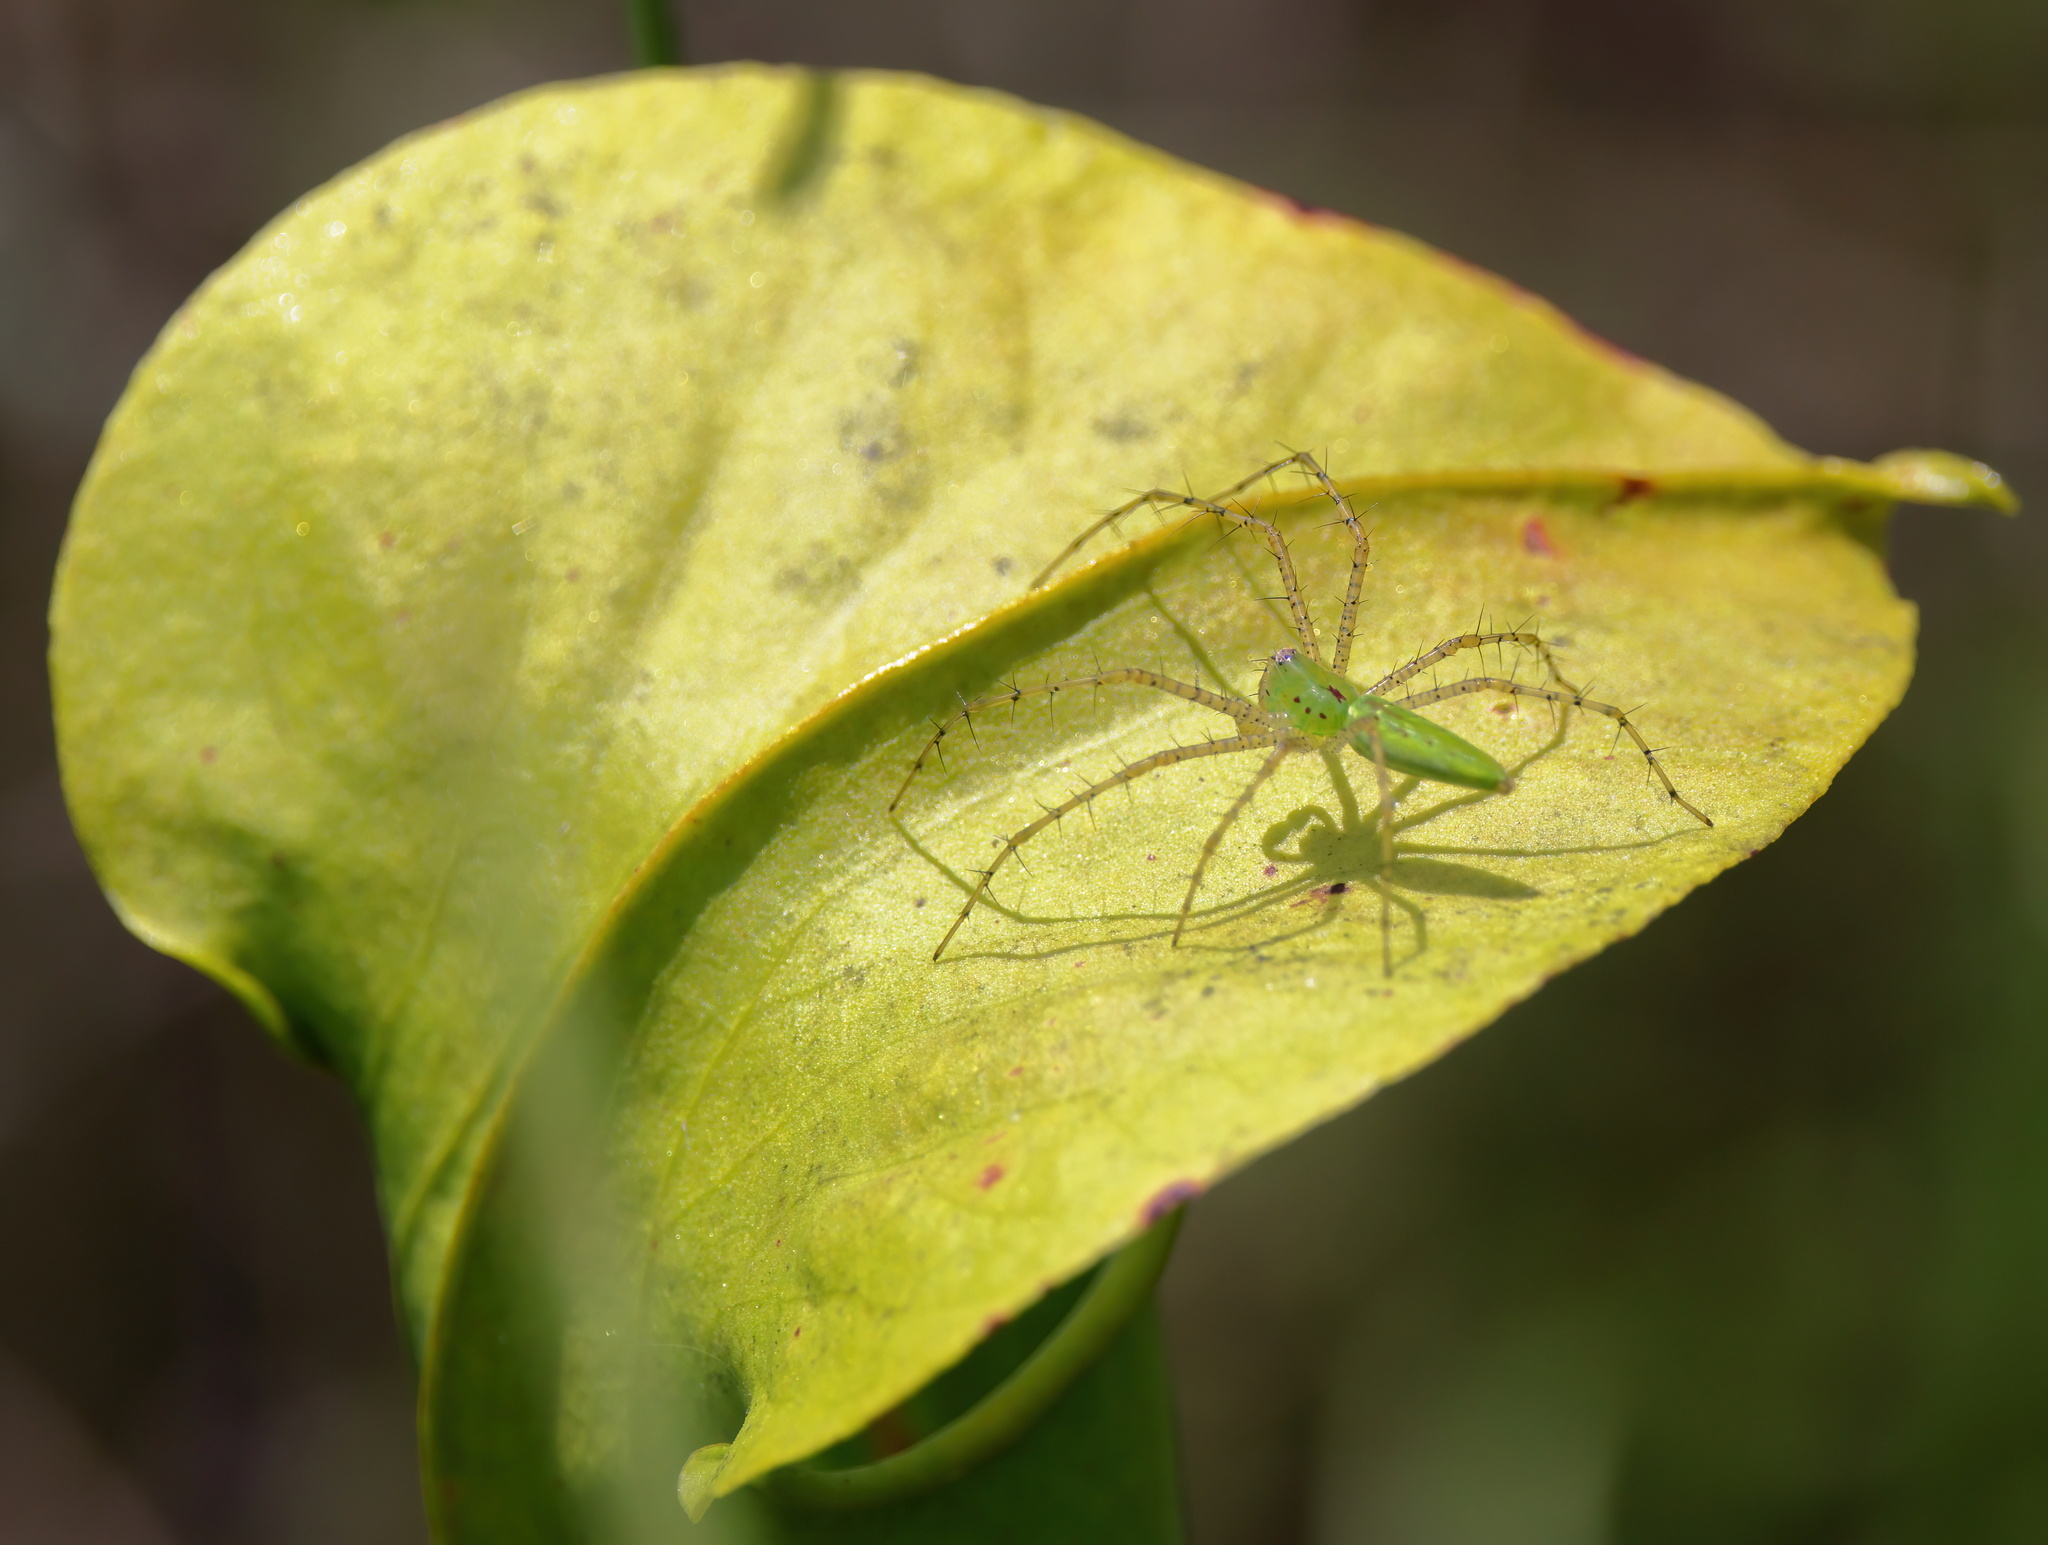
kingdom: Animalia
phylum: Arthropoda
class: Arachnida
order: Araneae
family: Oxyopidae
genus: Peucetia
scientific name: Peucetia viridans
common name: Lynx spiders
